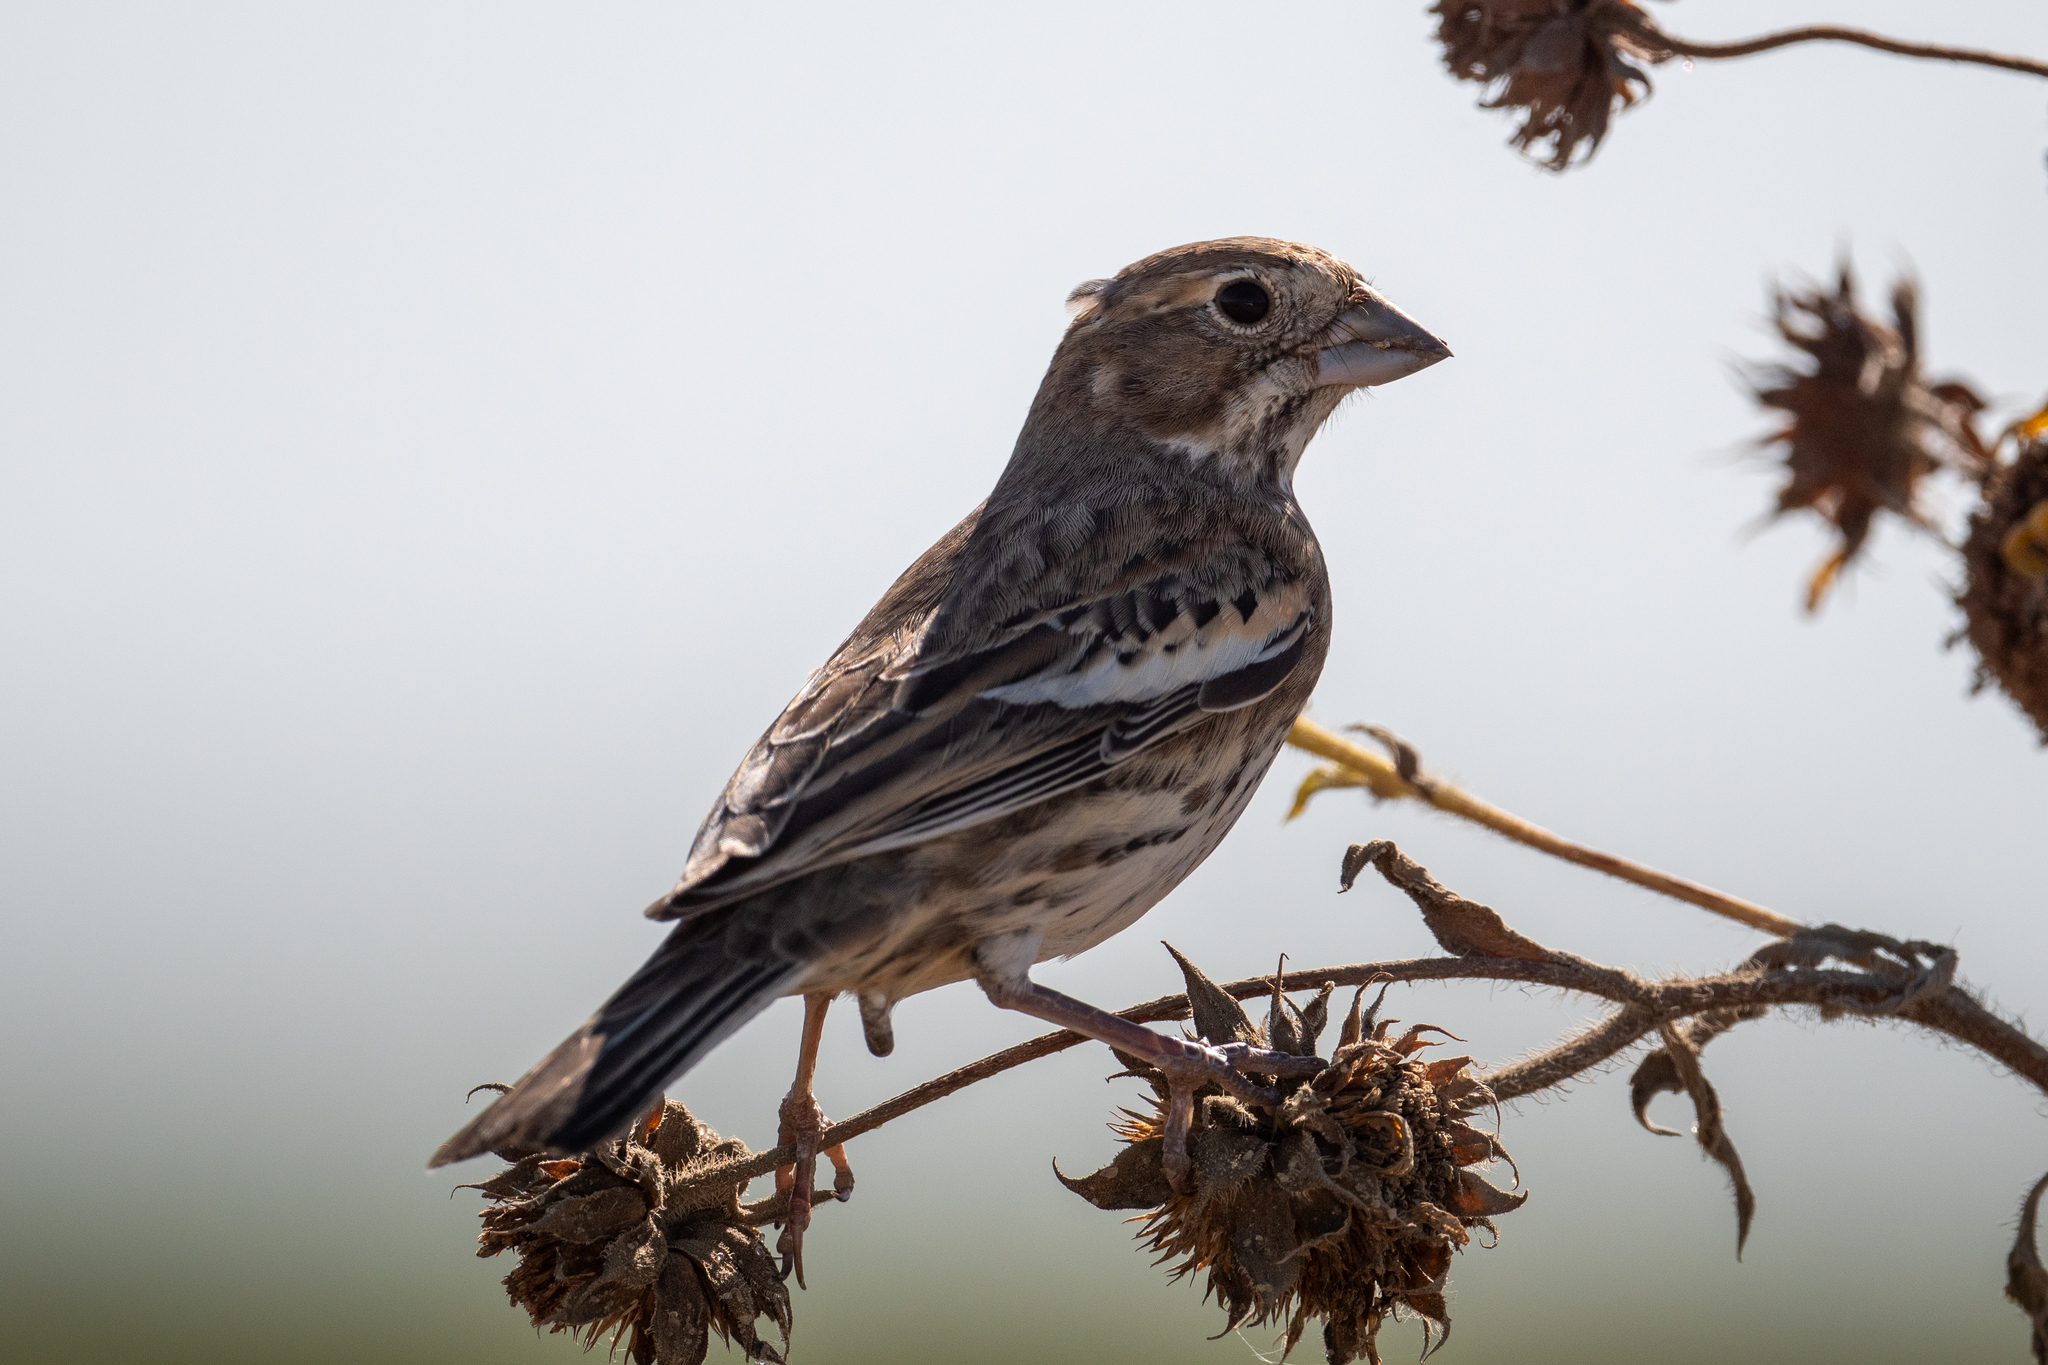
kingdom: Animalia
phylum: Chordata
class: Aves
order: Passeriformes
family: Passerellidae
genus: Calamospiza
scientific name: Calamospiza melanocorys
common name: Lark bunting
